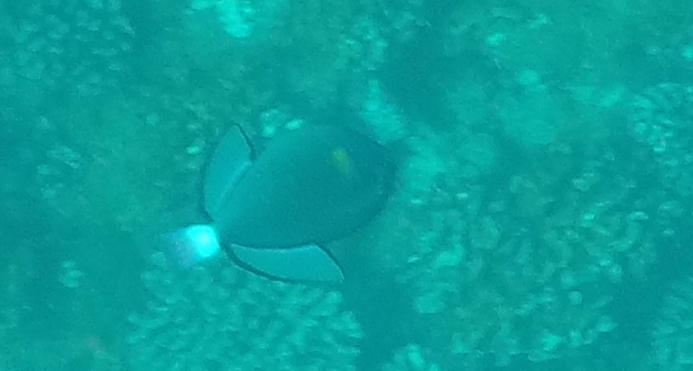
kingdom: Animalia
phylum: Chordata
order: Tetraodontiformes
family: Balistidae
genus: Melichthys
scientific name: Melichthys vidua
